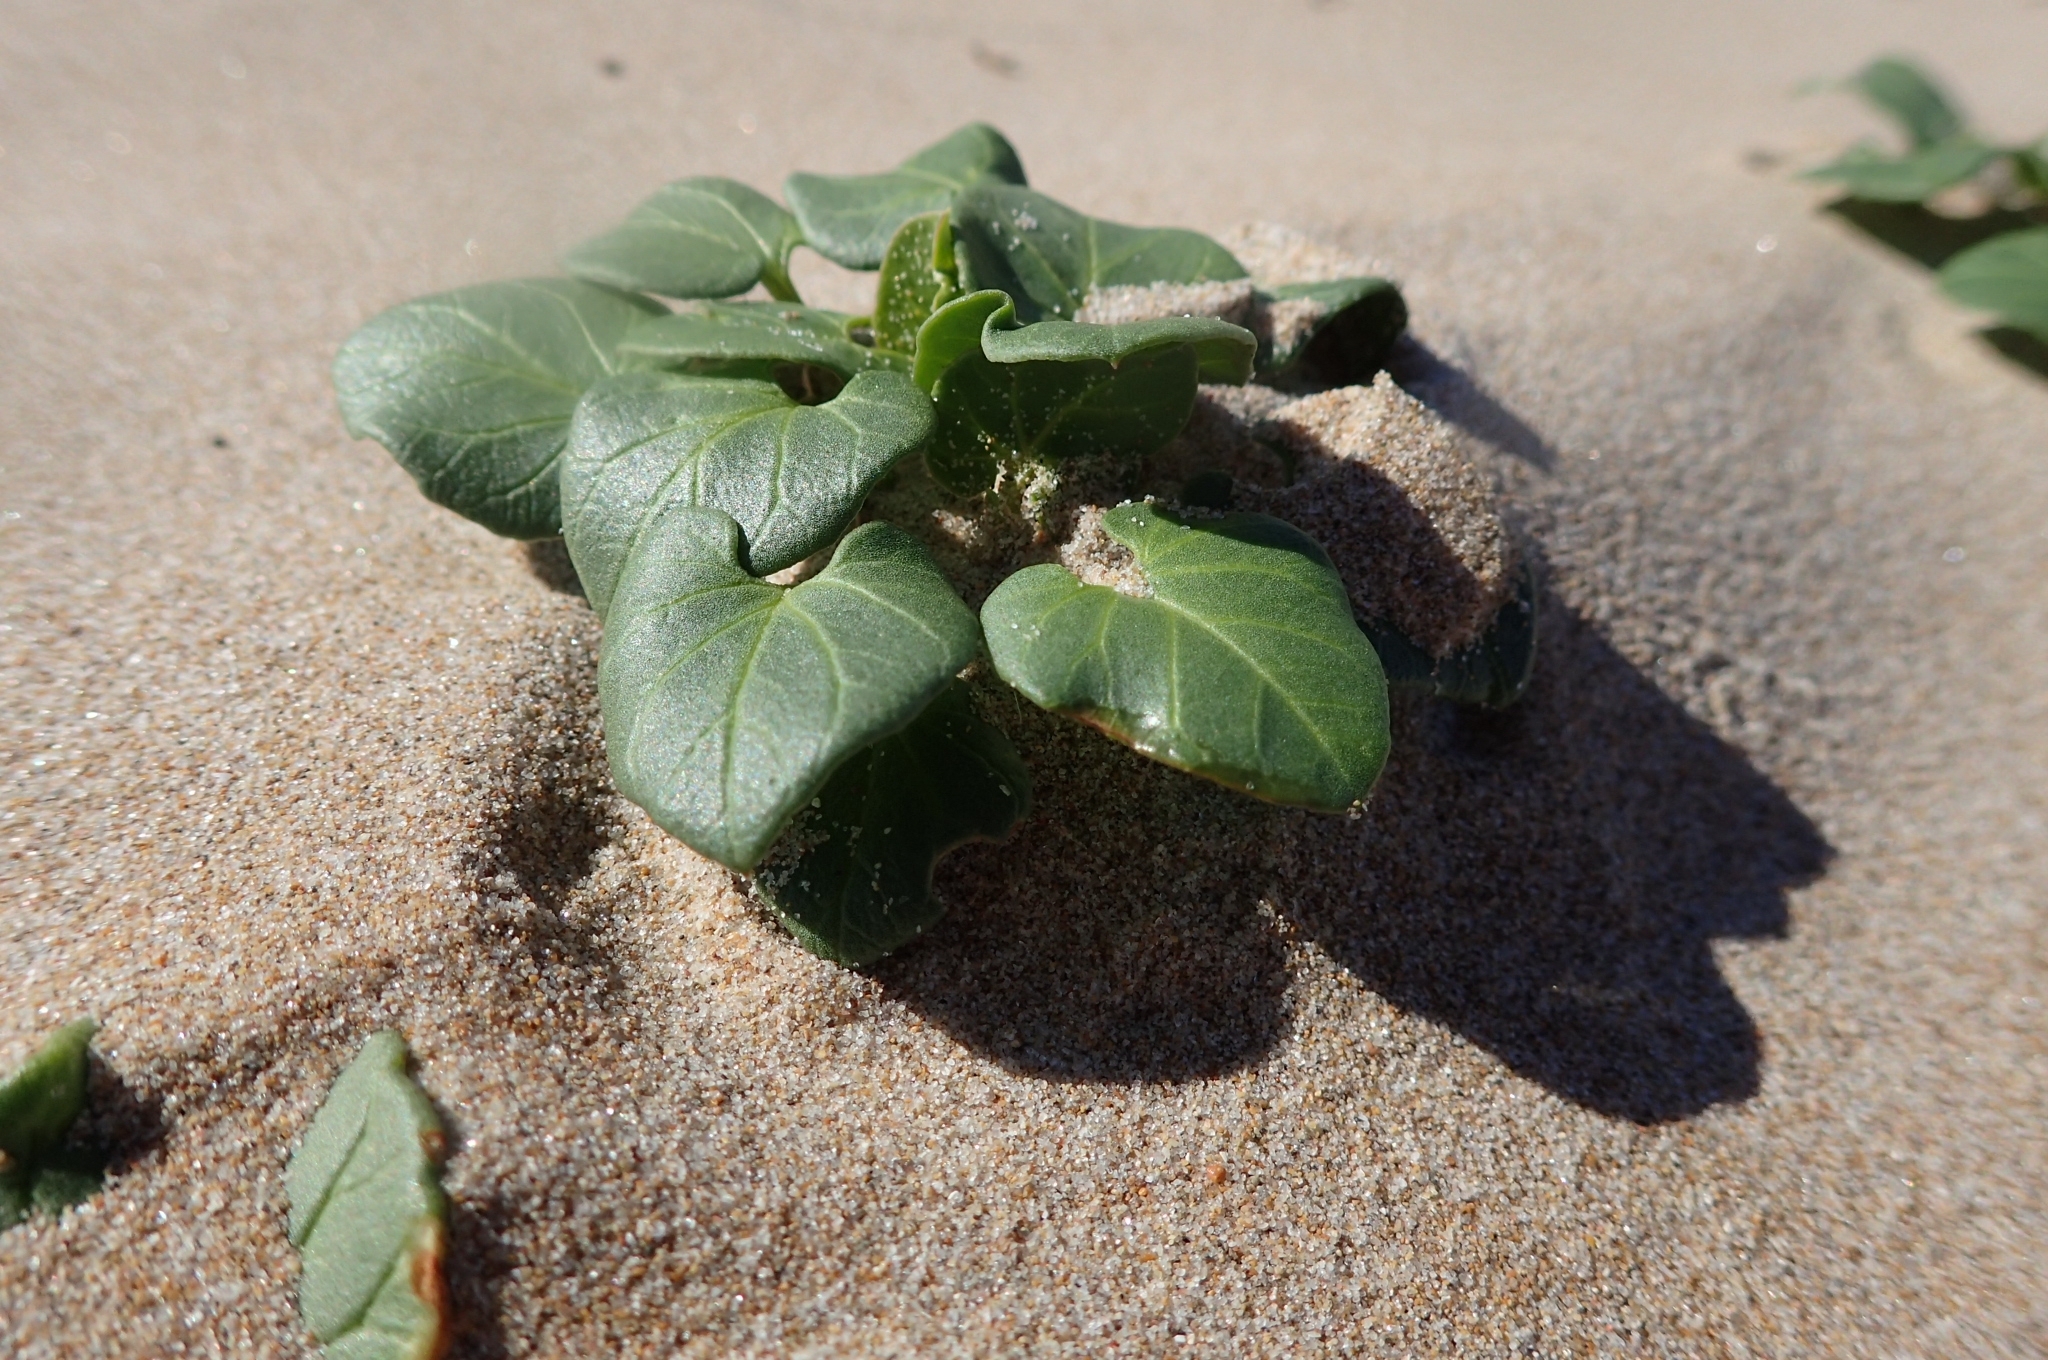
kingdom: Plantae
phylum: Tracheophyta
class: Magnoliopsida
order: Solanales
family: Convolvulaceae
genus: Calystegia
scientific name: Calystegia soldanella
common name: Sea bindweed
